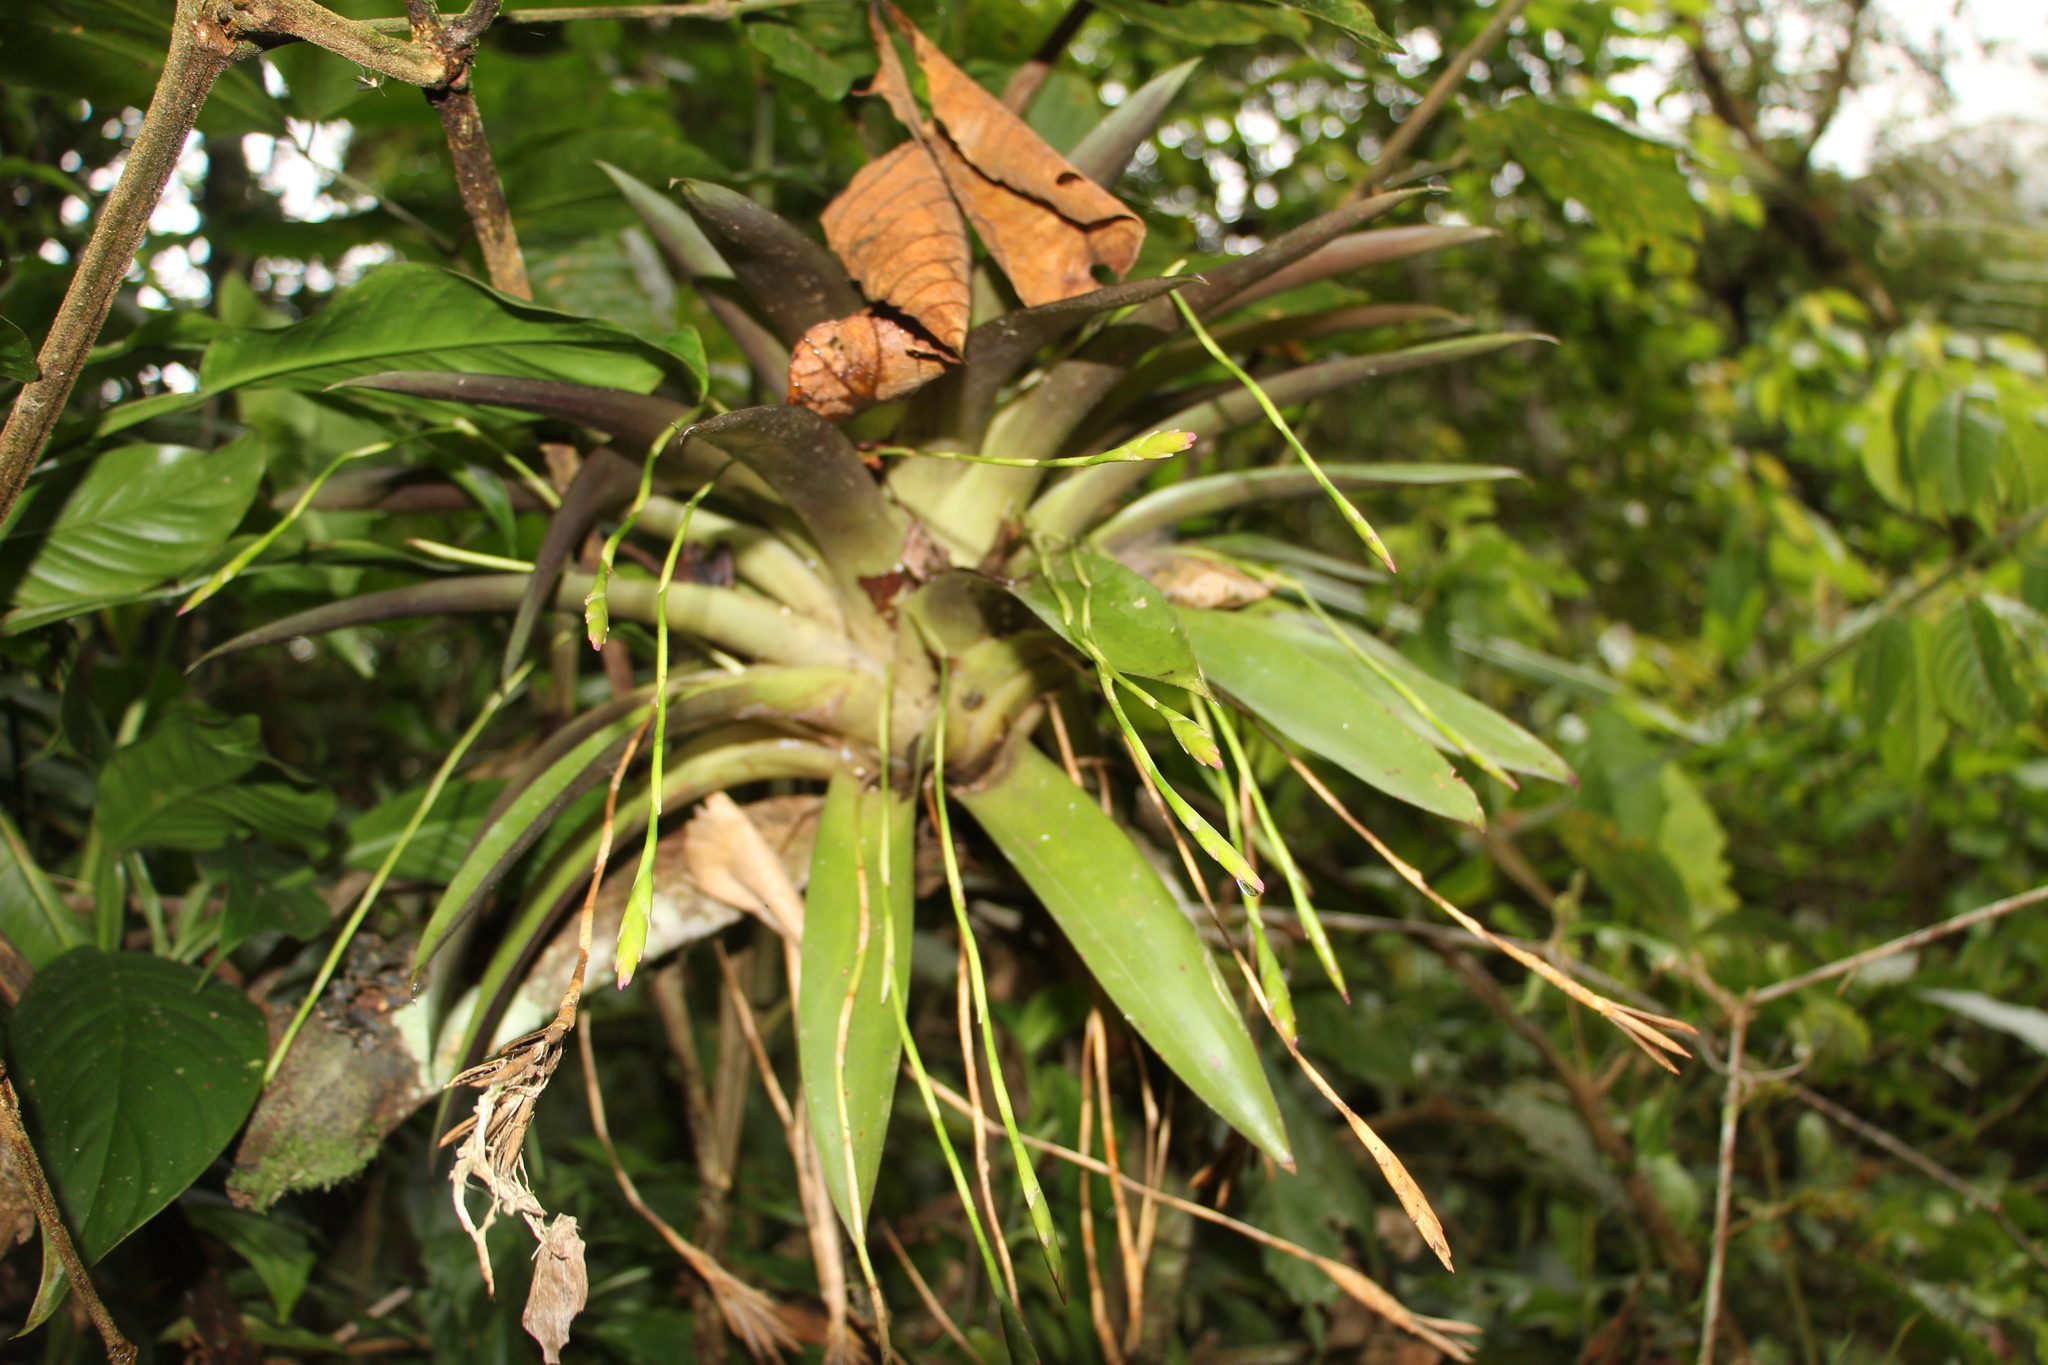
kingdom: Plantae
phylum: Tracheophyta
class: Liliopsida
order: Poales
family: Bromeliaceae
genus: Tillandsia
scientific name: Tillandsia complanata
